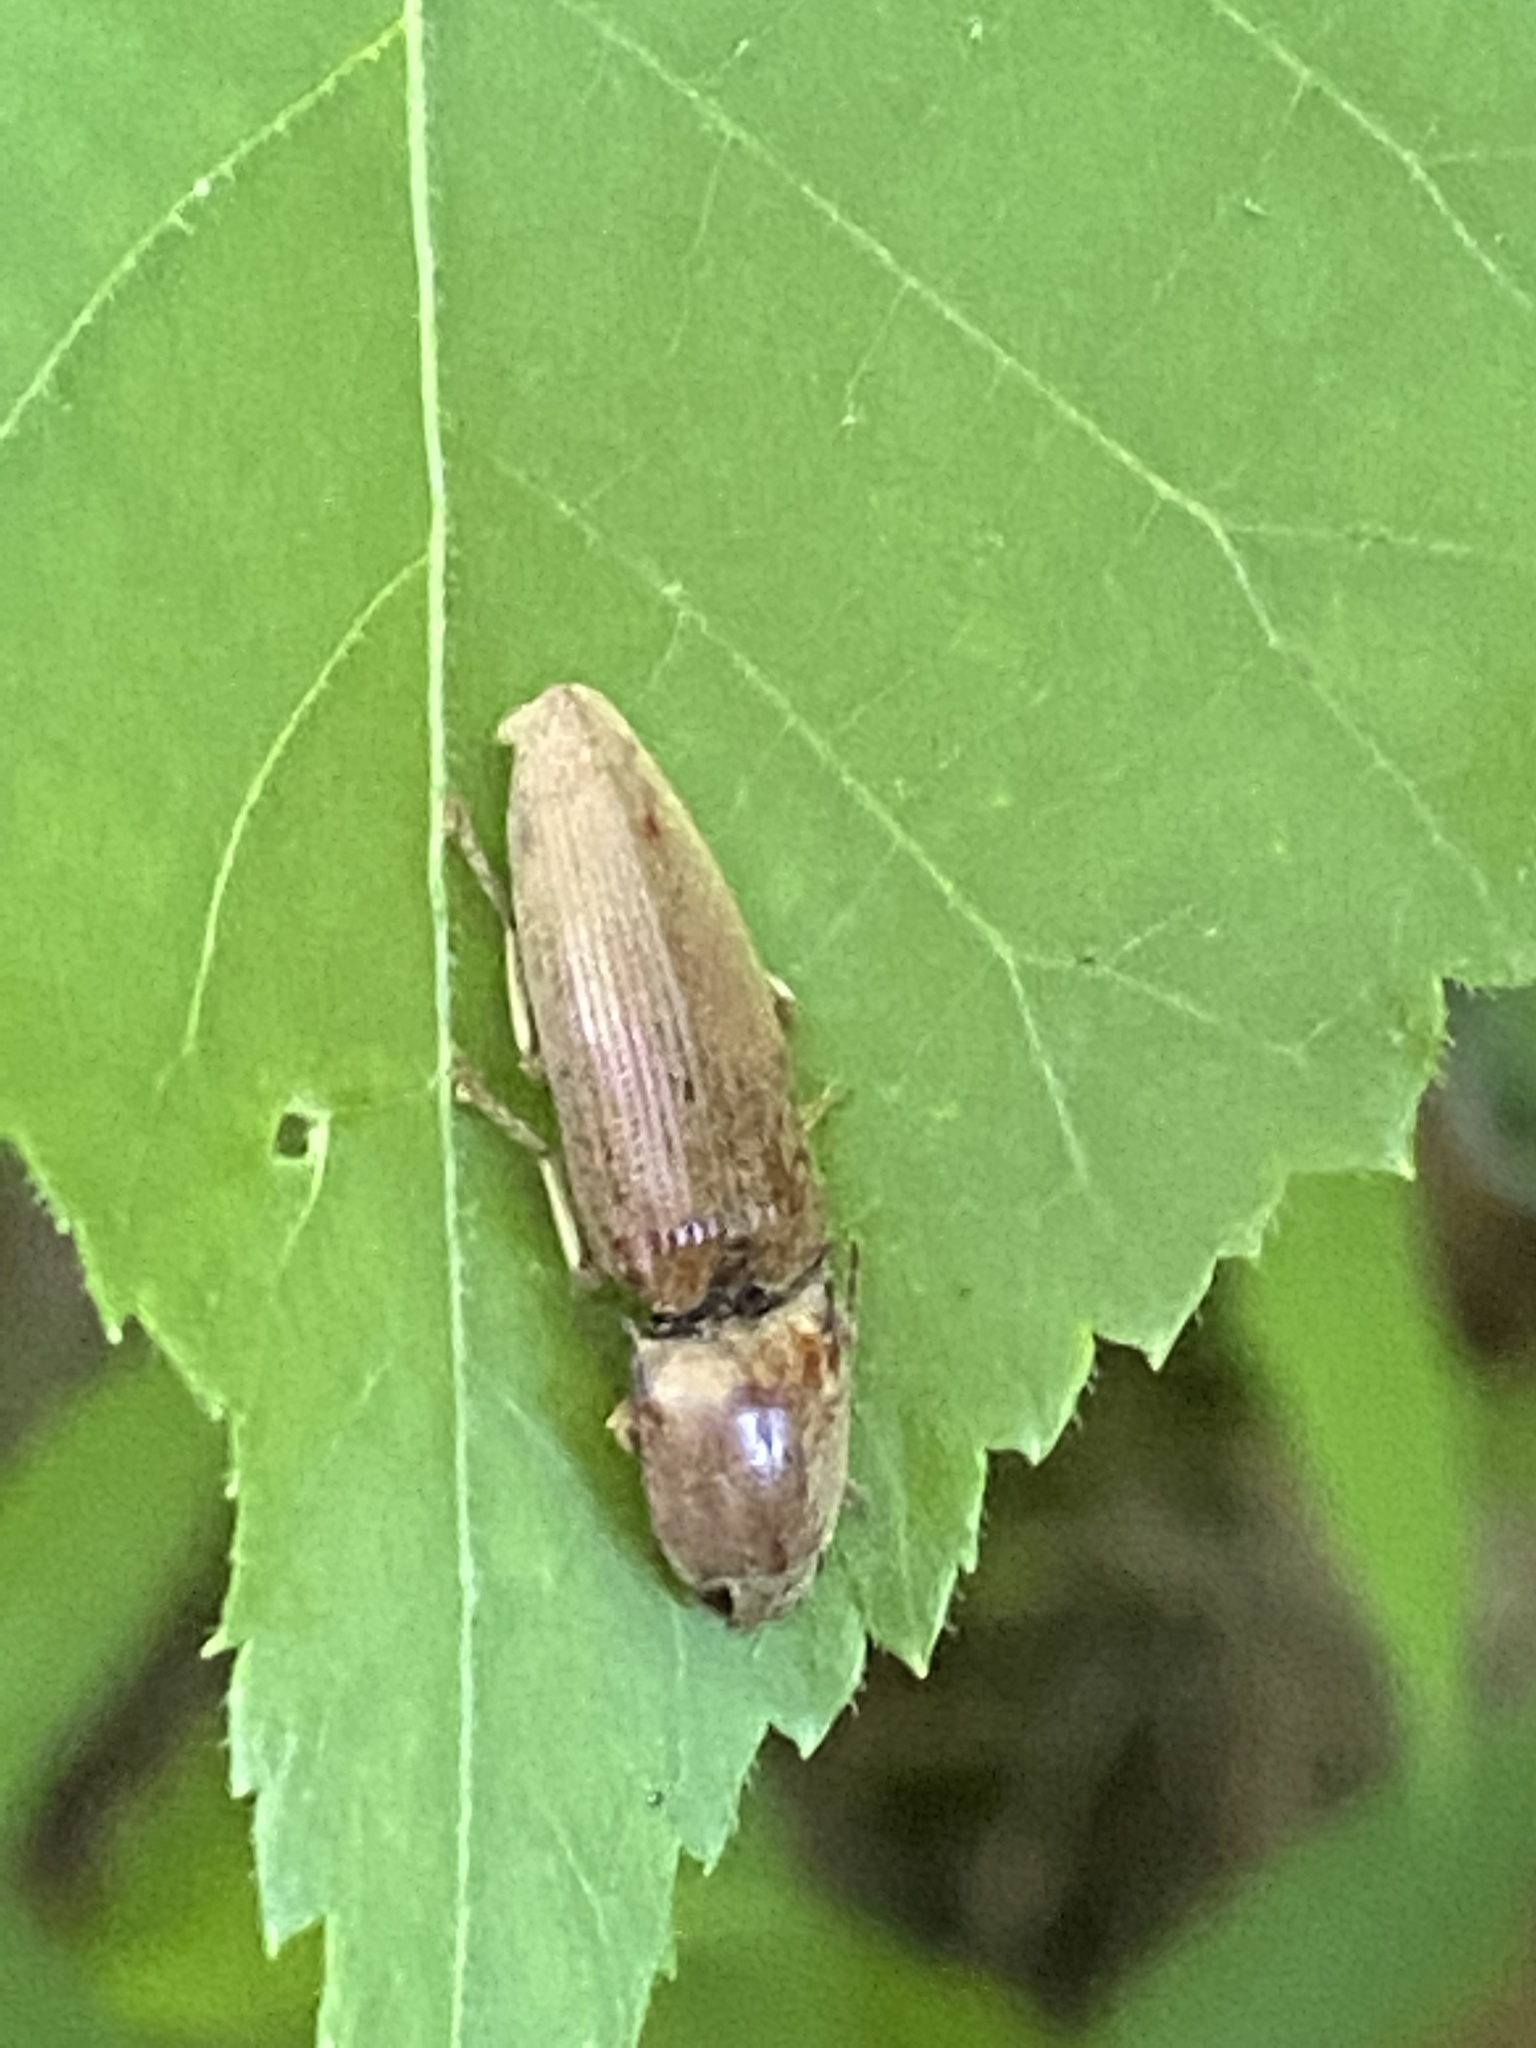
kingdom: Animalia
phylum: Arthropoda
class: Insecta
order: Coleoptera
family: Elateridae
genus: Monocrepidius
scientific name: Monocrepidius lividus
